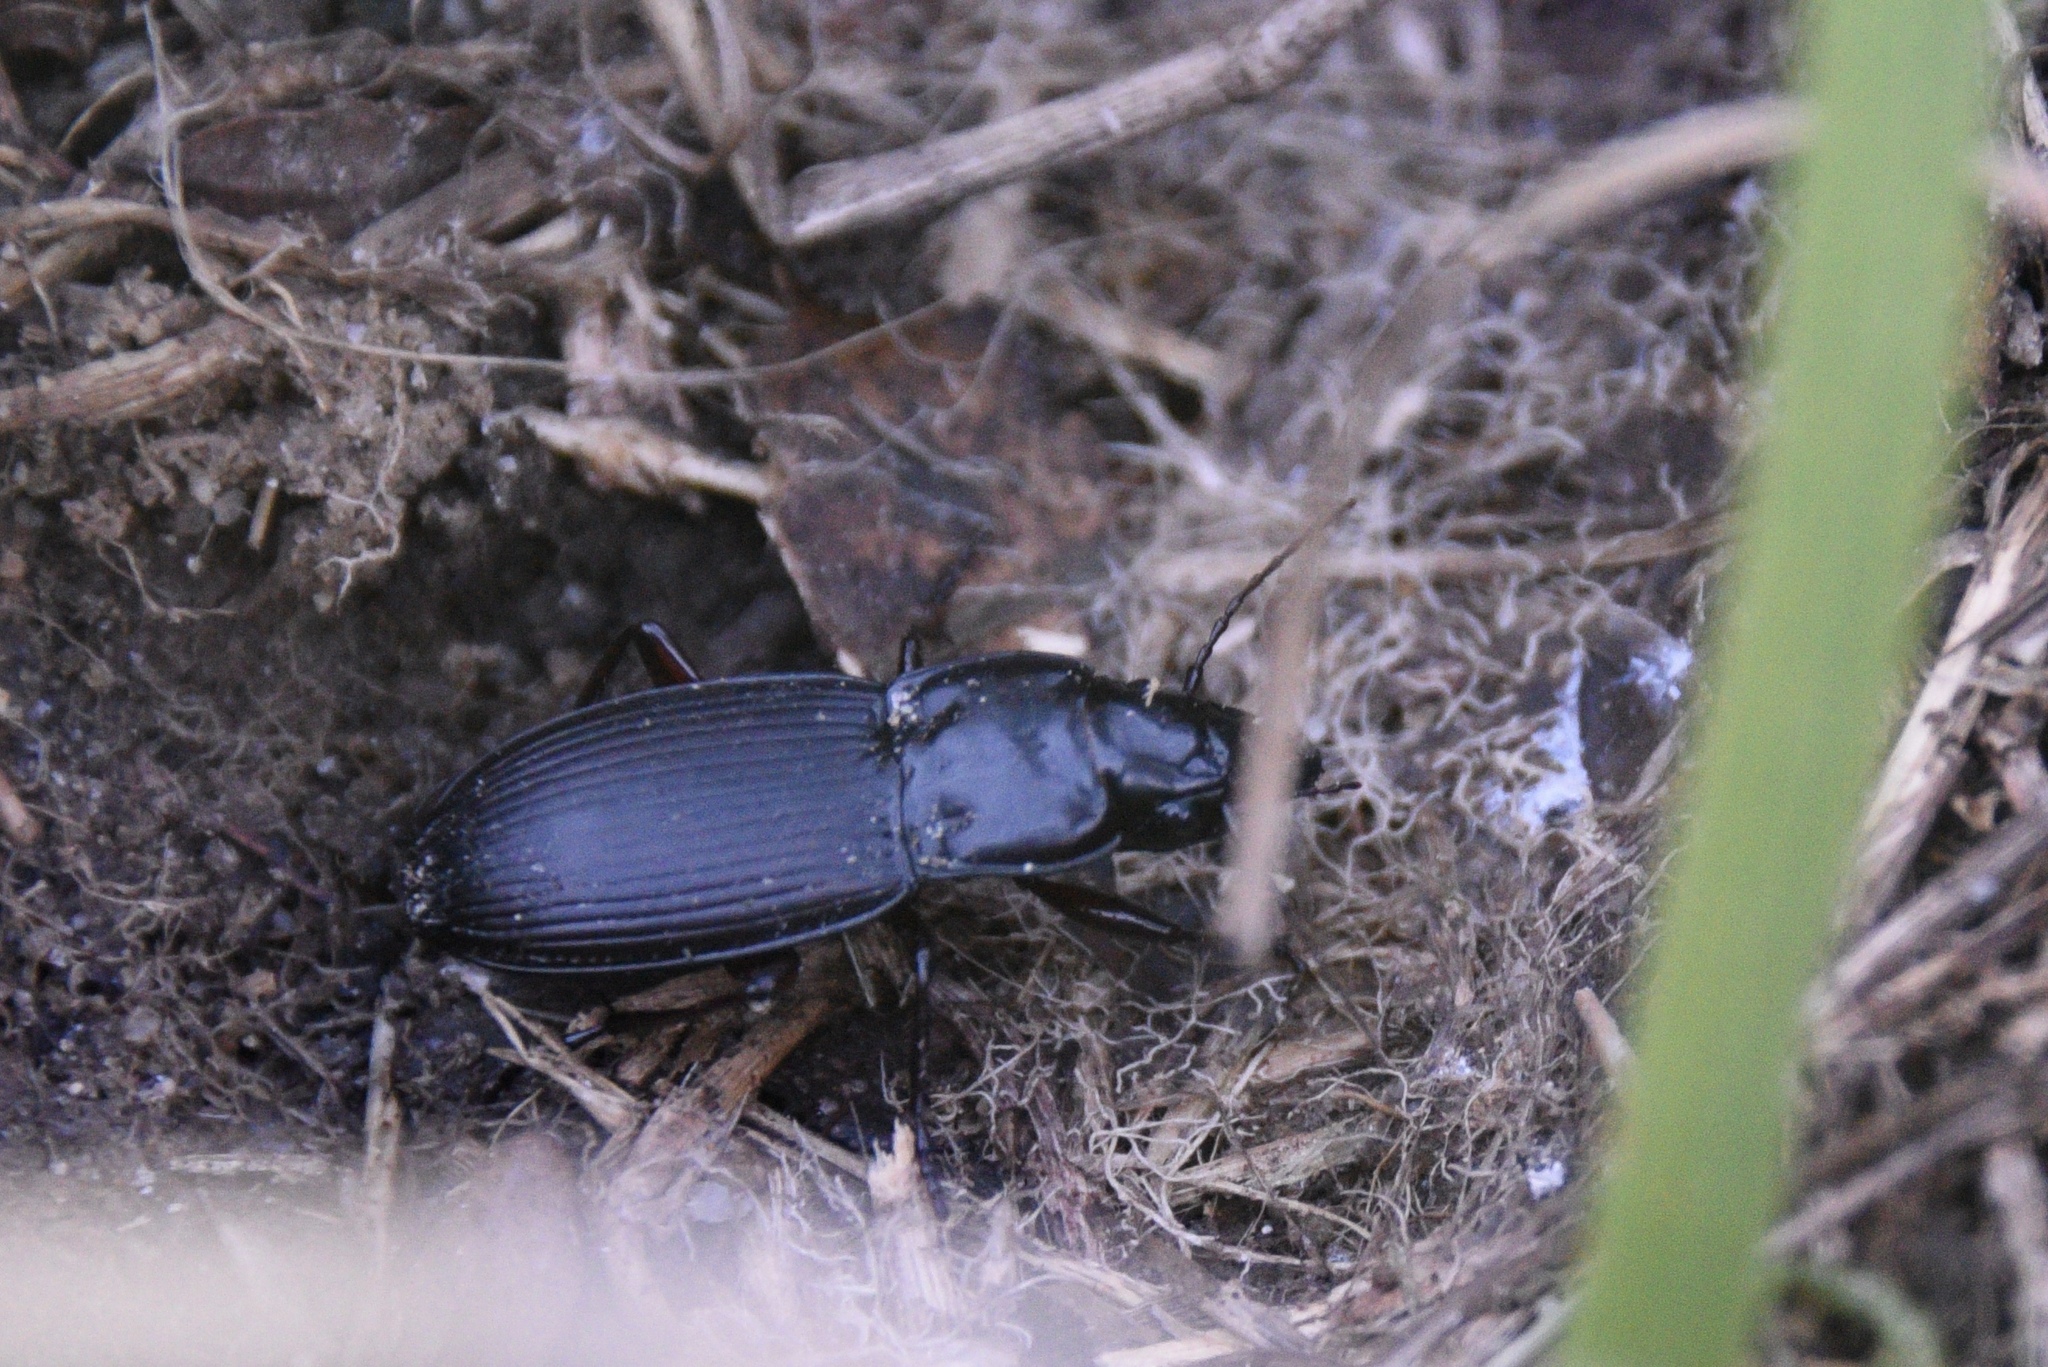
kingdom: Animalia
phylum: Arthropoda
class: Insecta
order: Coleoptera
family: Carabidae
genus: Plocamostethus
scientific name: Plocamostethus planiusculus
